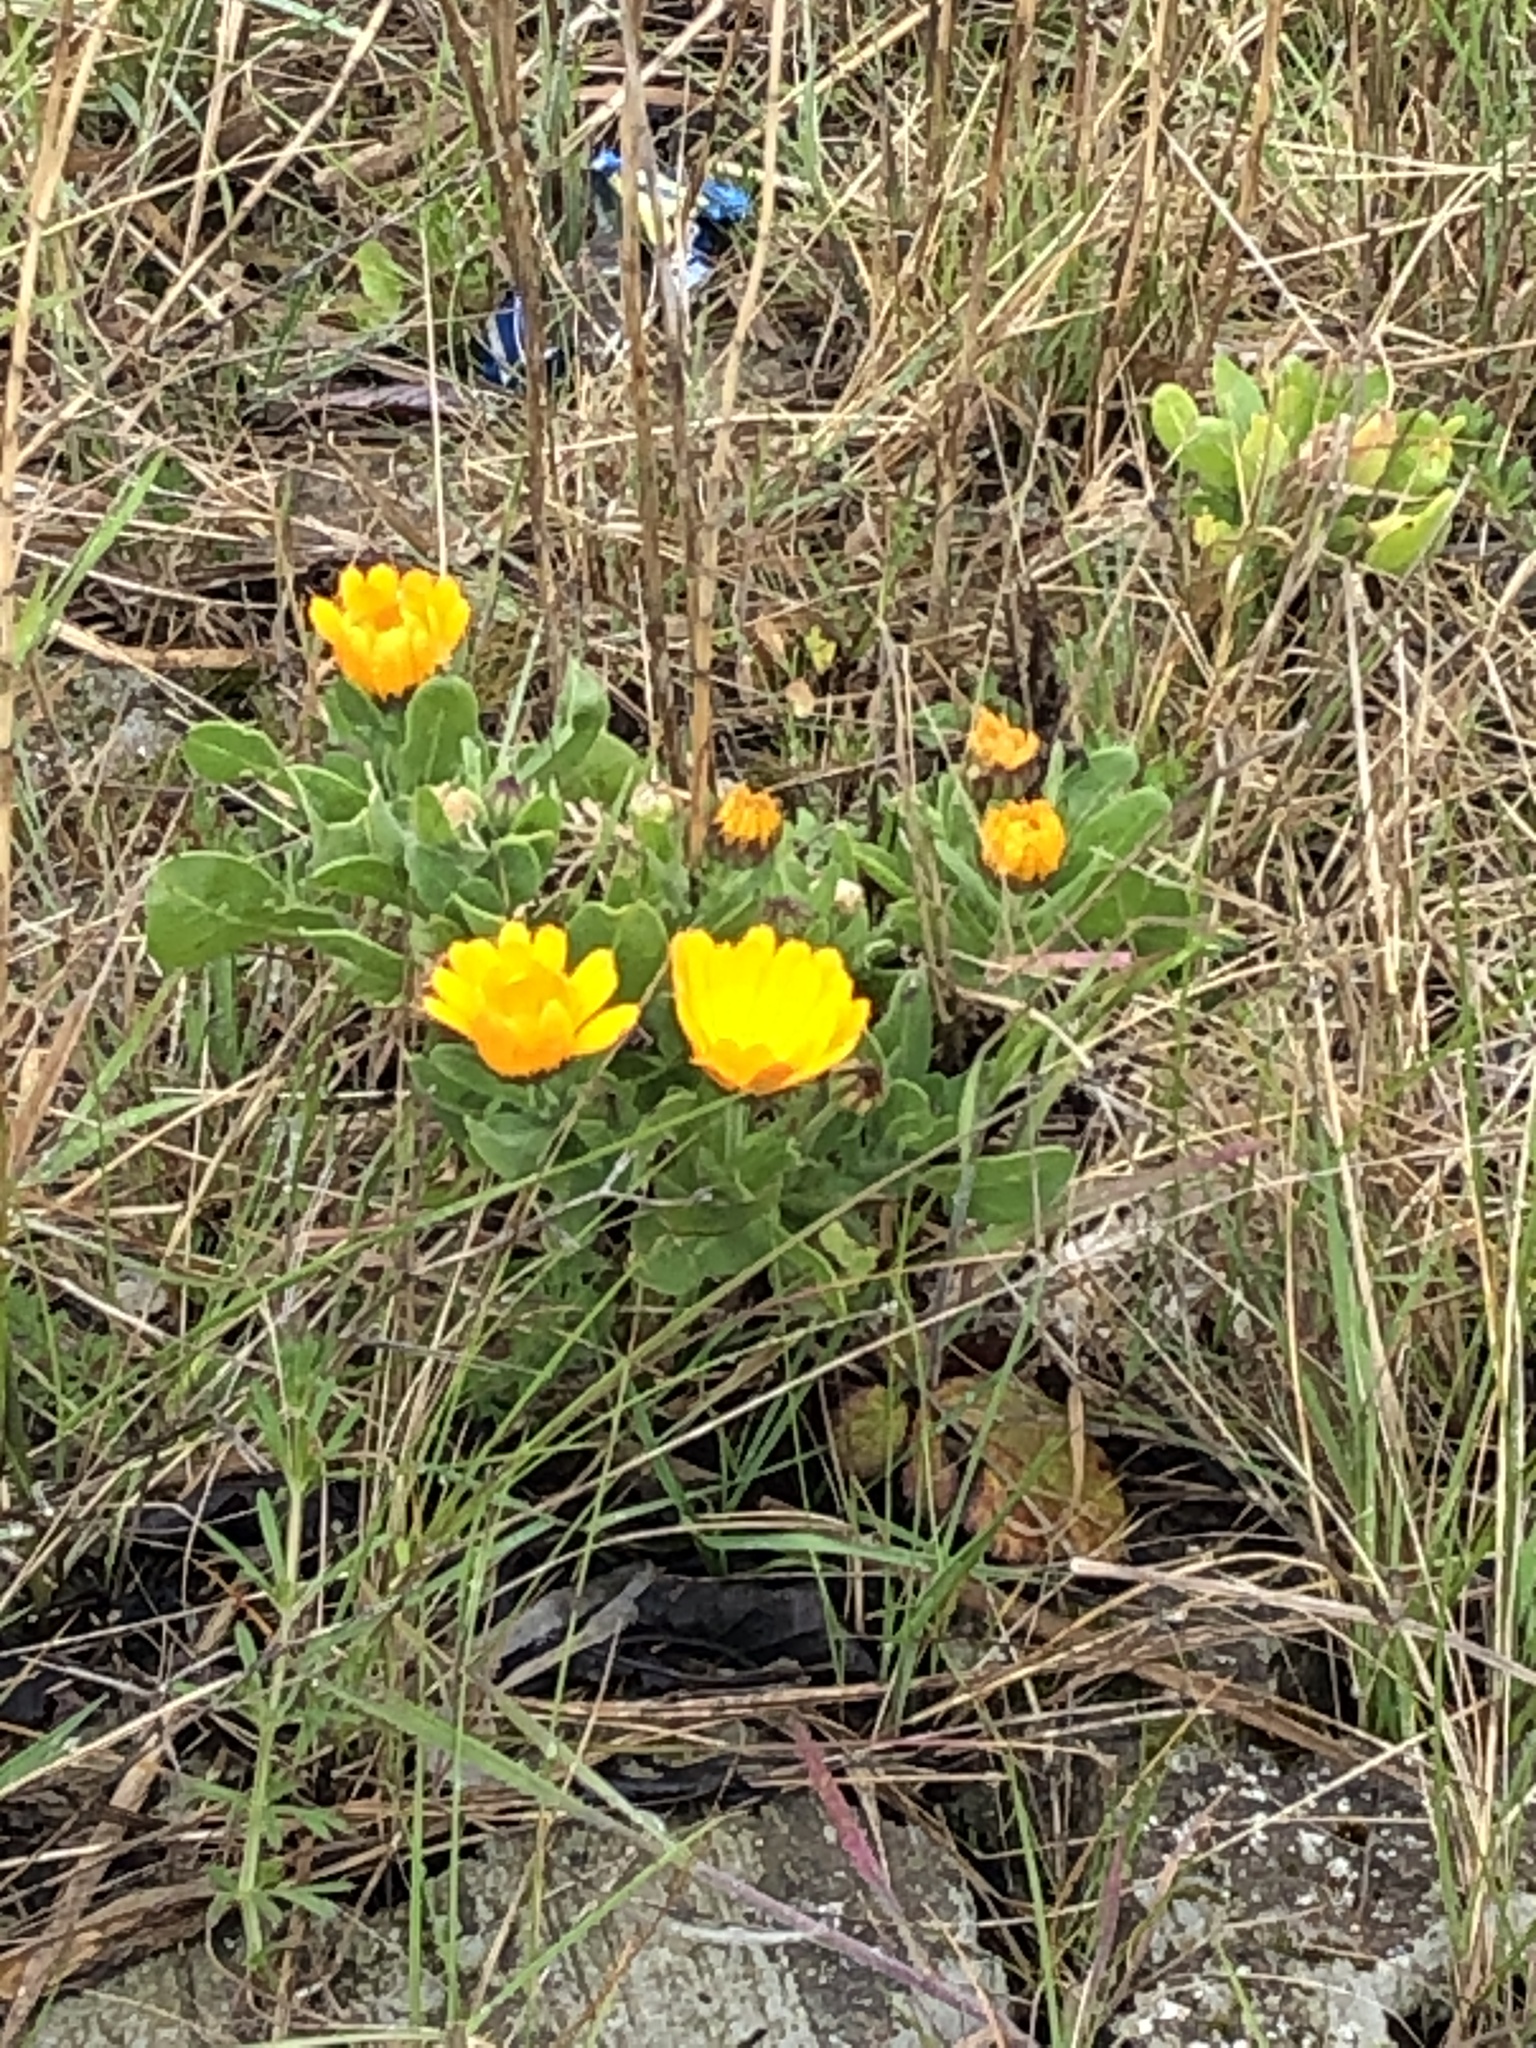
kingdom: Plantae
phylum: Tracheophyta
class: Magnoliopsida
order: Asterales
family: Asteraceae
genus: Calendula
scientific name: Calendula officinalis
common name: Pot marigold
